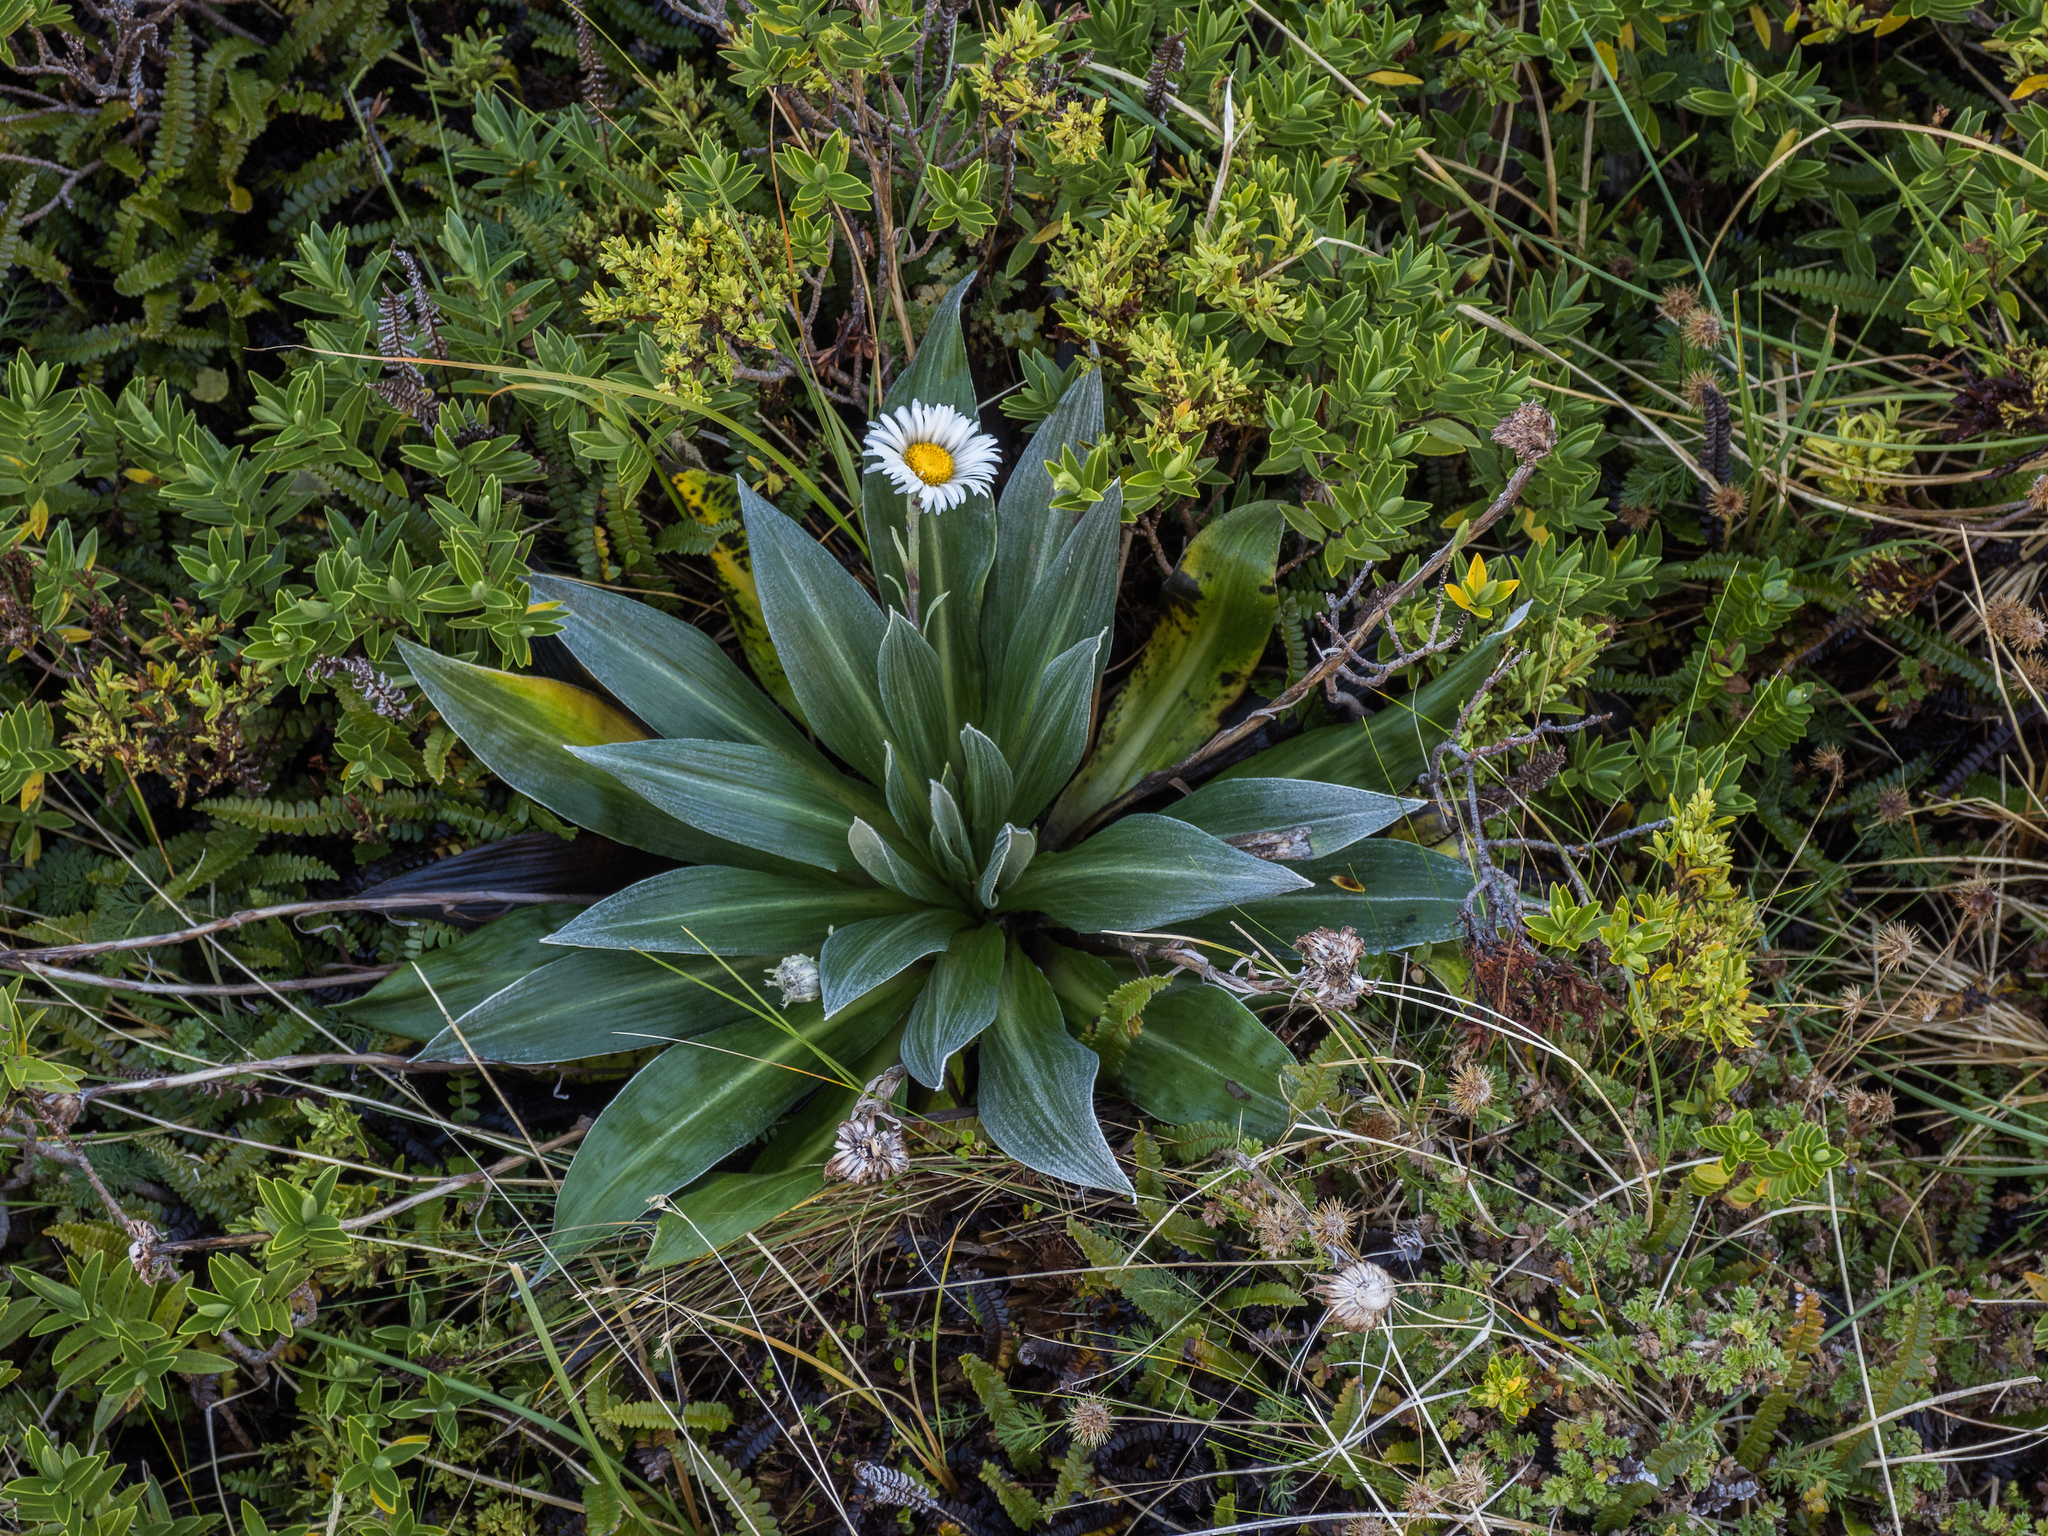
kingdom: Plantae
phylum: Tracheophyta
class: Magnoliopsida
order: Asterales
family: Asteraceae
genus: Celmisia
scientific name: Celmisia semicordata
